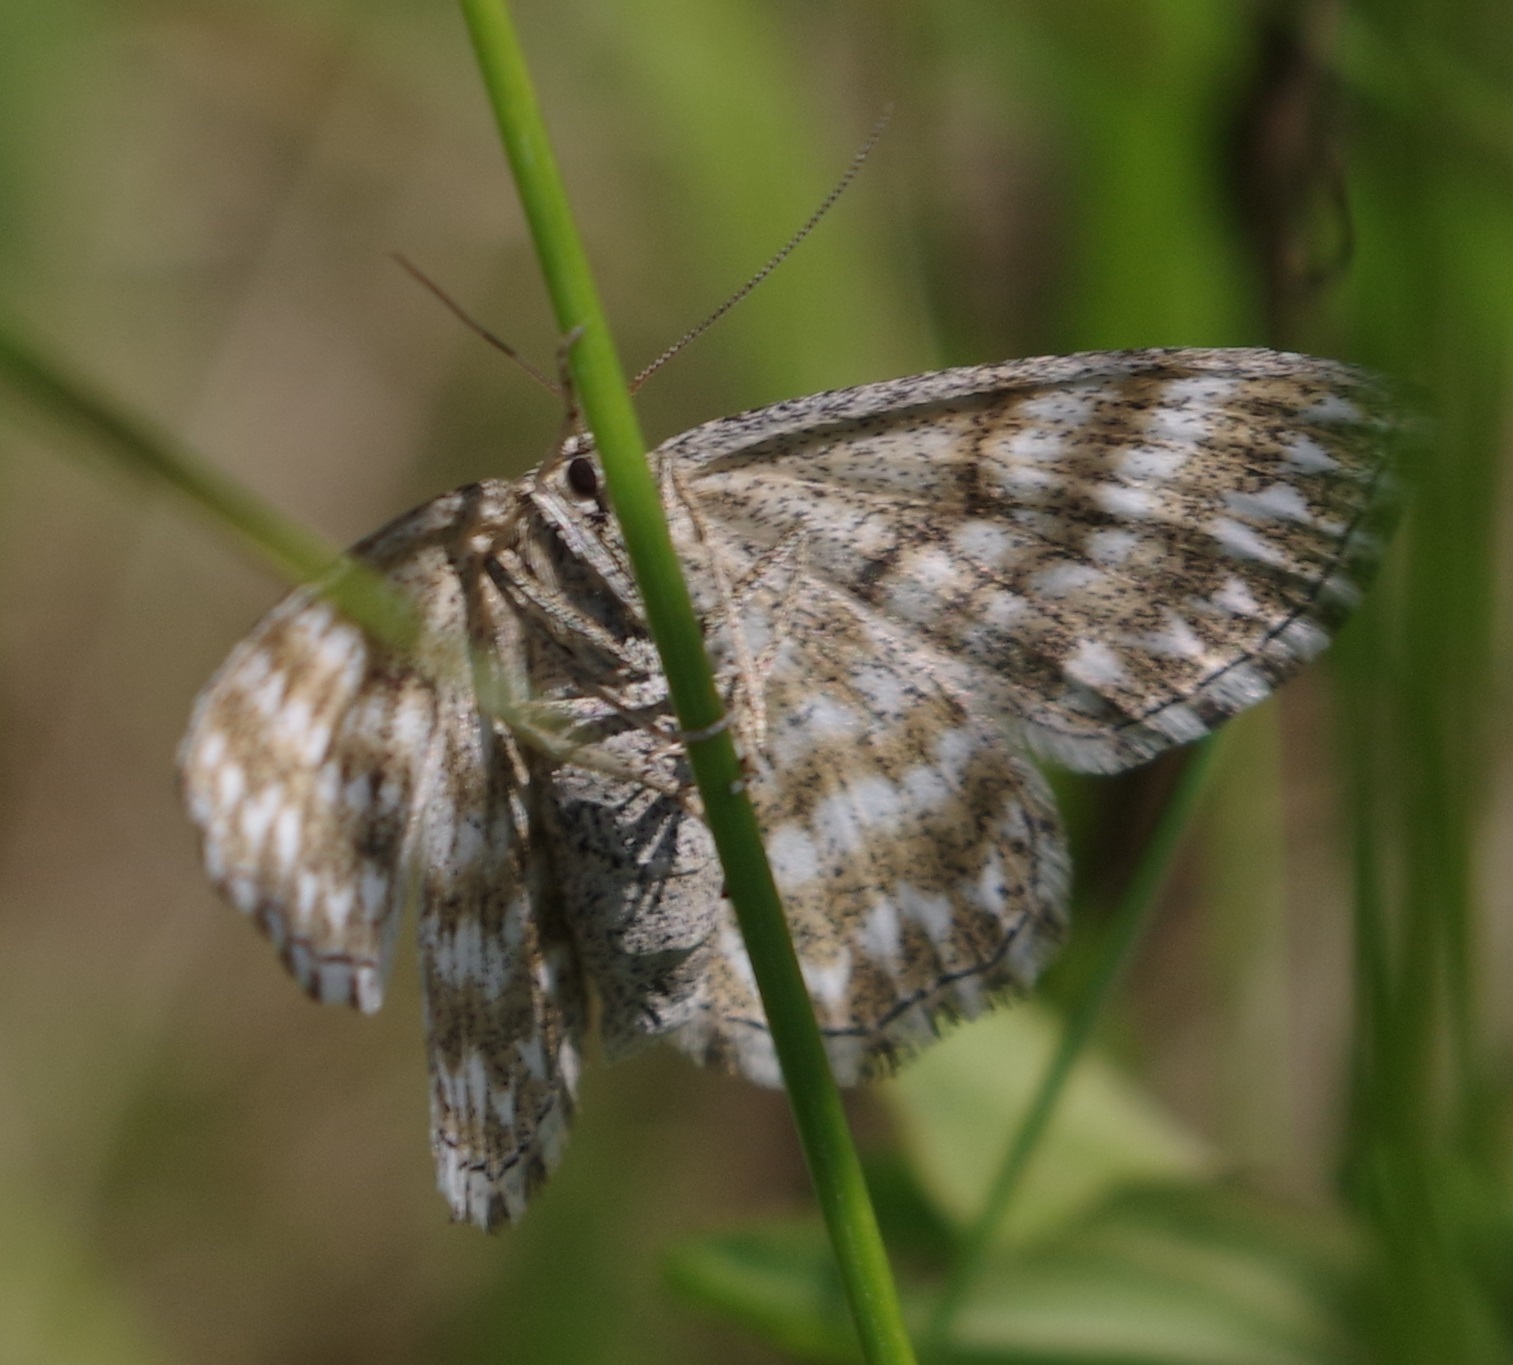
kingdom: Animalia
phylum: Arthropoda
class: Insecta
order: Lepidoptera
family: Geometridae
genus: Scopula
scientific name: Scopula immorata
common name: Lewes wave
